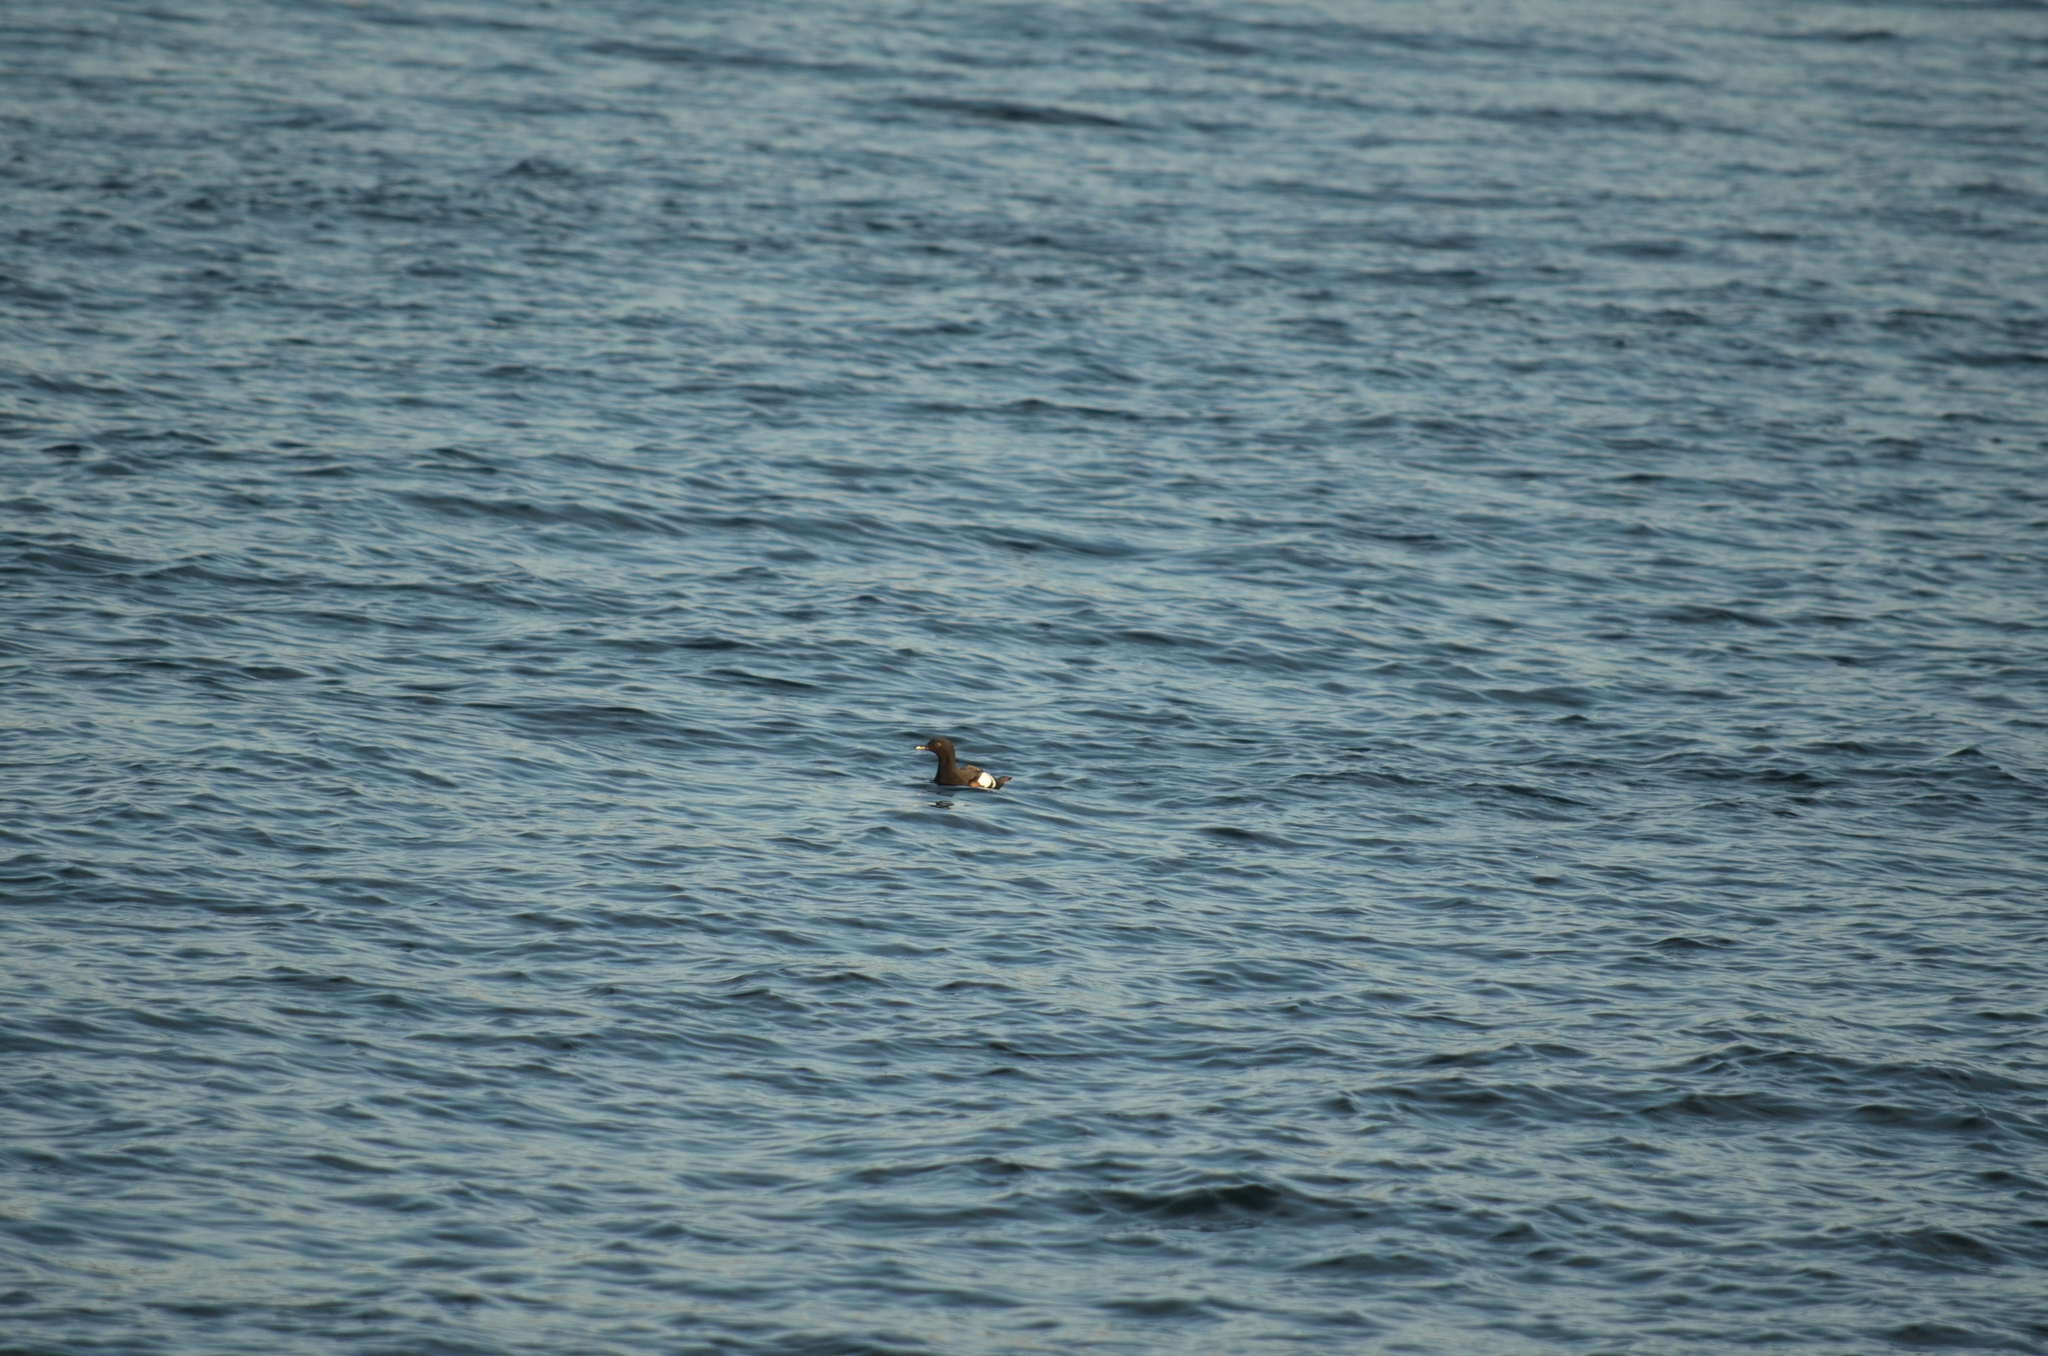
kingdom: Animalia
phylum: Chordata
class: Aves
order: Charadriiformes
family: Alcidae
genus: Cepphus
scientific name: Cepphus columba
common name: Pigeon guillemot
